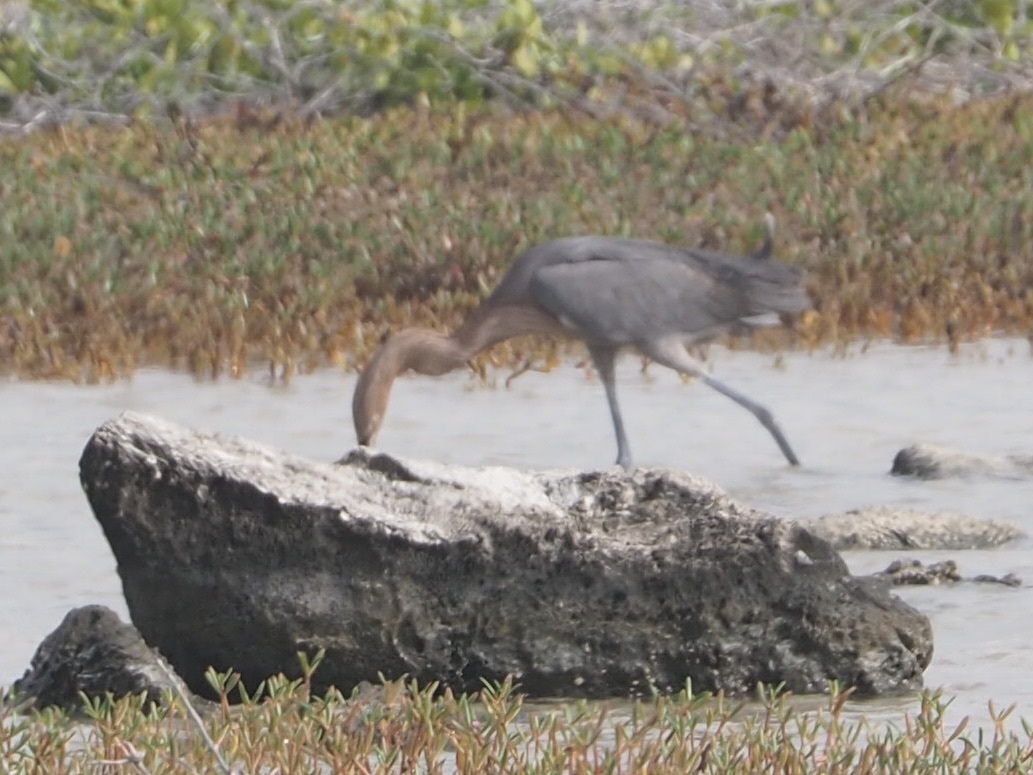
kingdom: Animalia
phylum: Chordata
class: Aves
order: Pelecaniformes
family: Ardeidae
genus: Egretta
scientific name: Egretta rufescens
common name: Reddish egret
